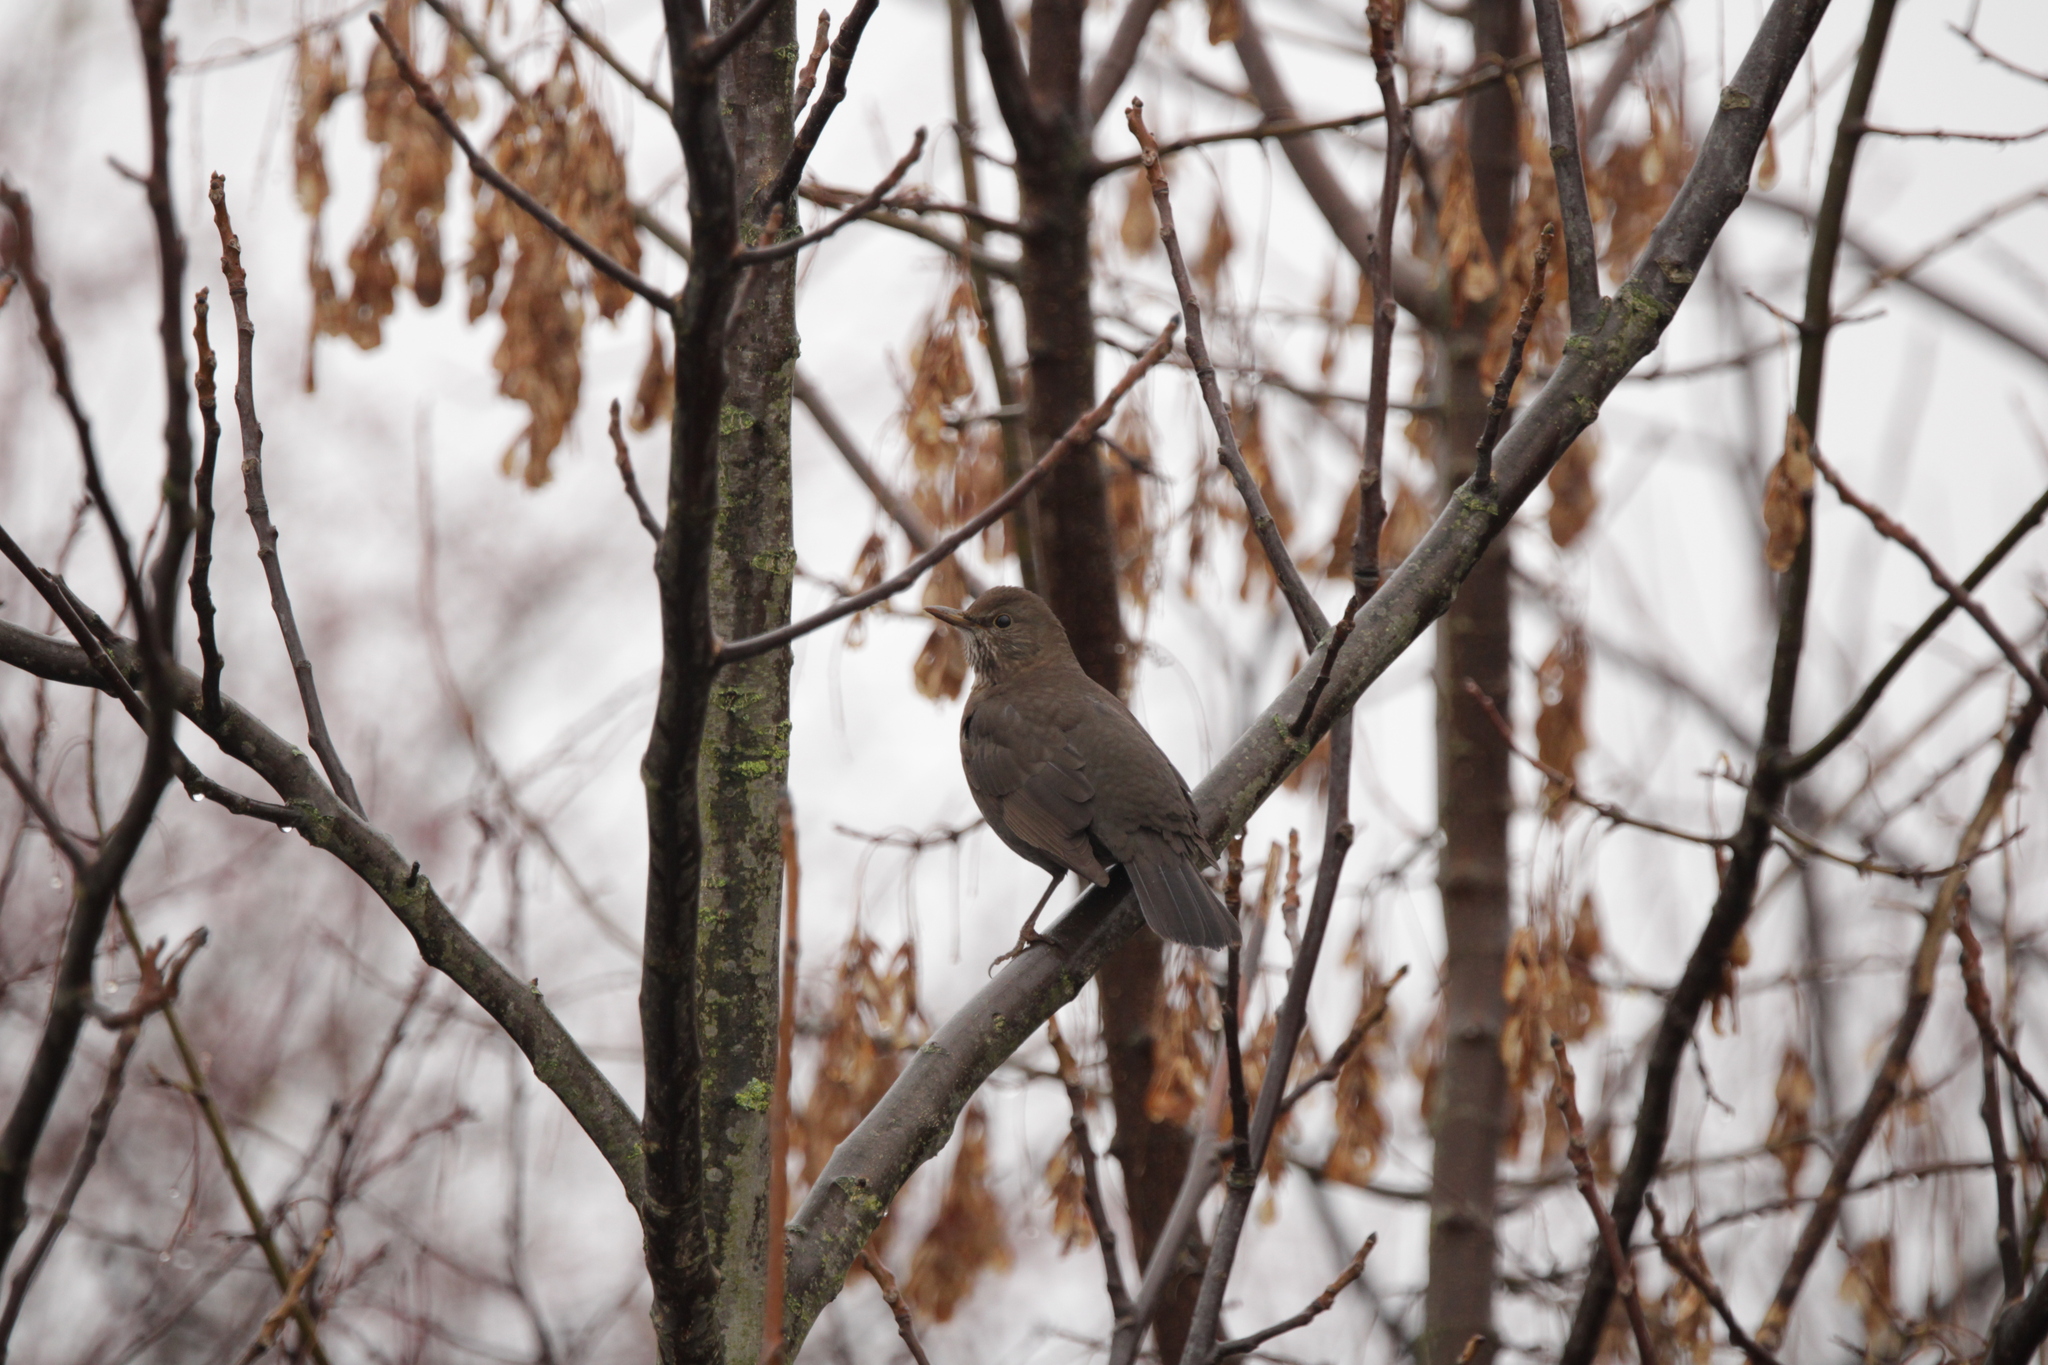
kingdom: Animalia
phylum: Chordata
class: Aves
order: Passeriformes
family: Turdidae
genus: Turdus
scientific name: Turdus merula
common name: Common blackbird
